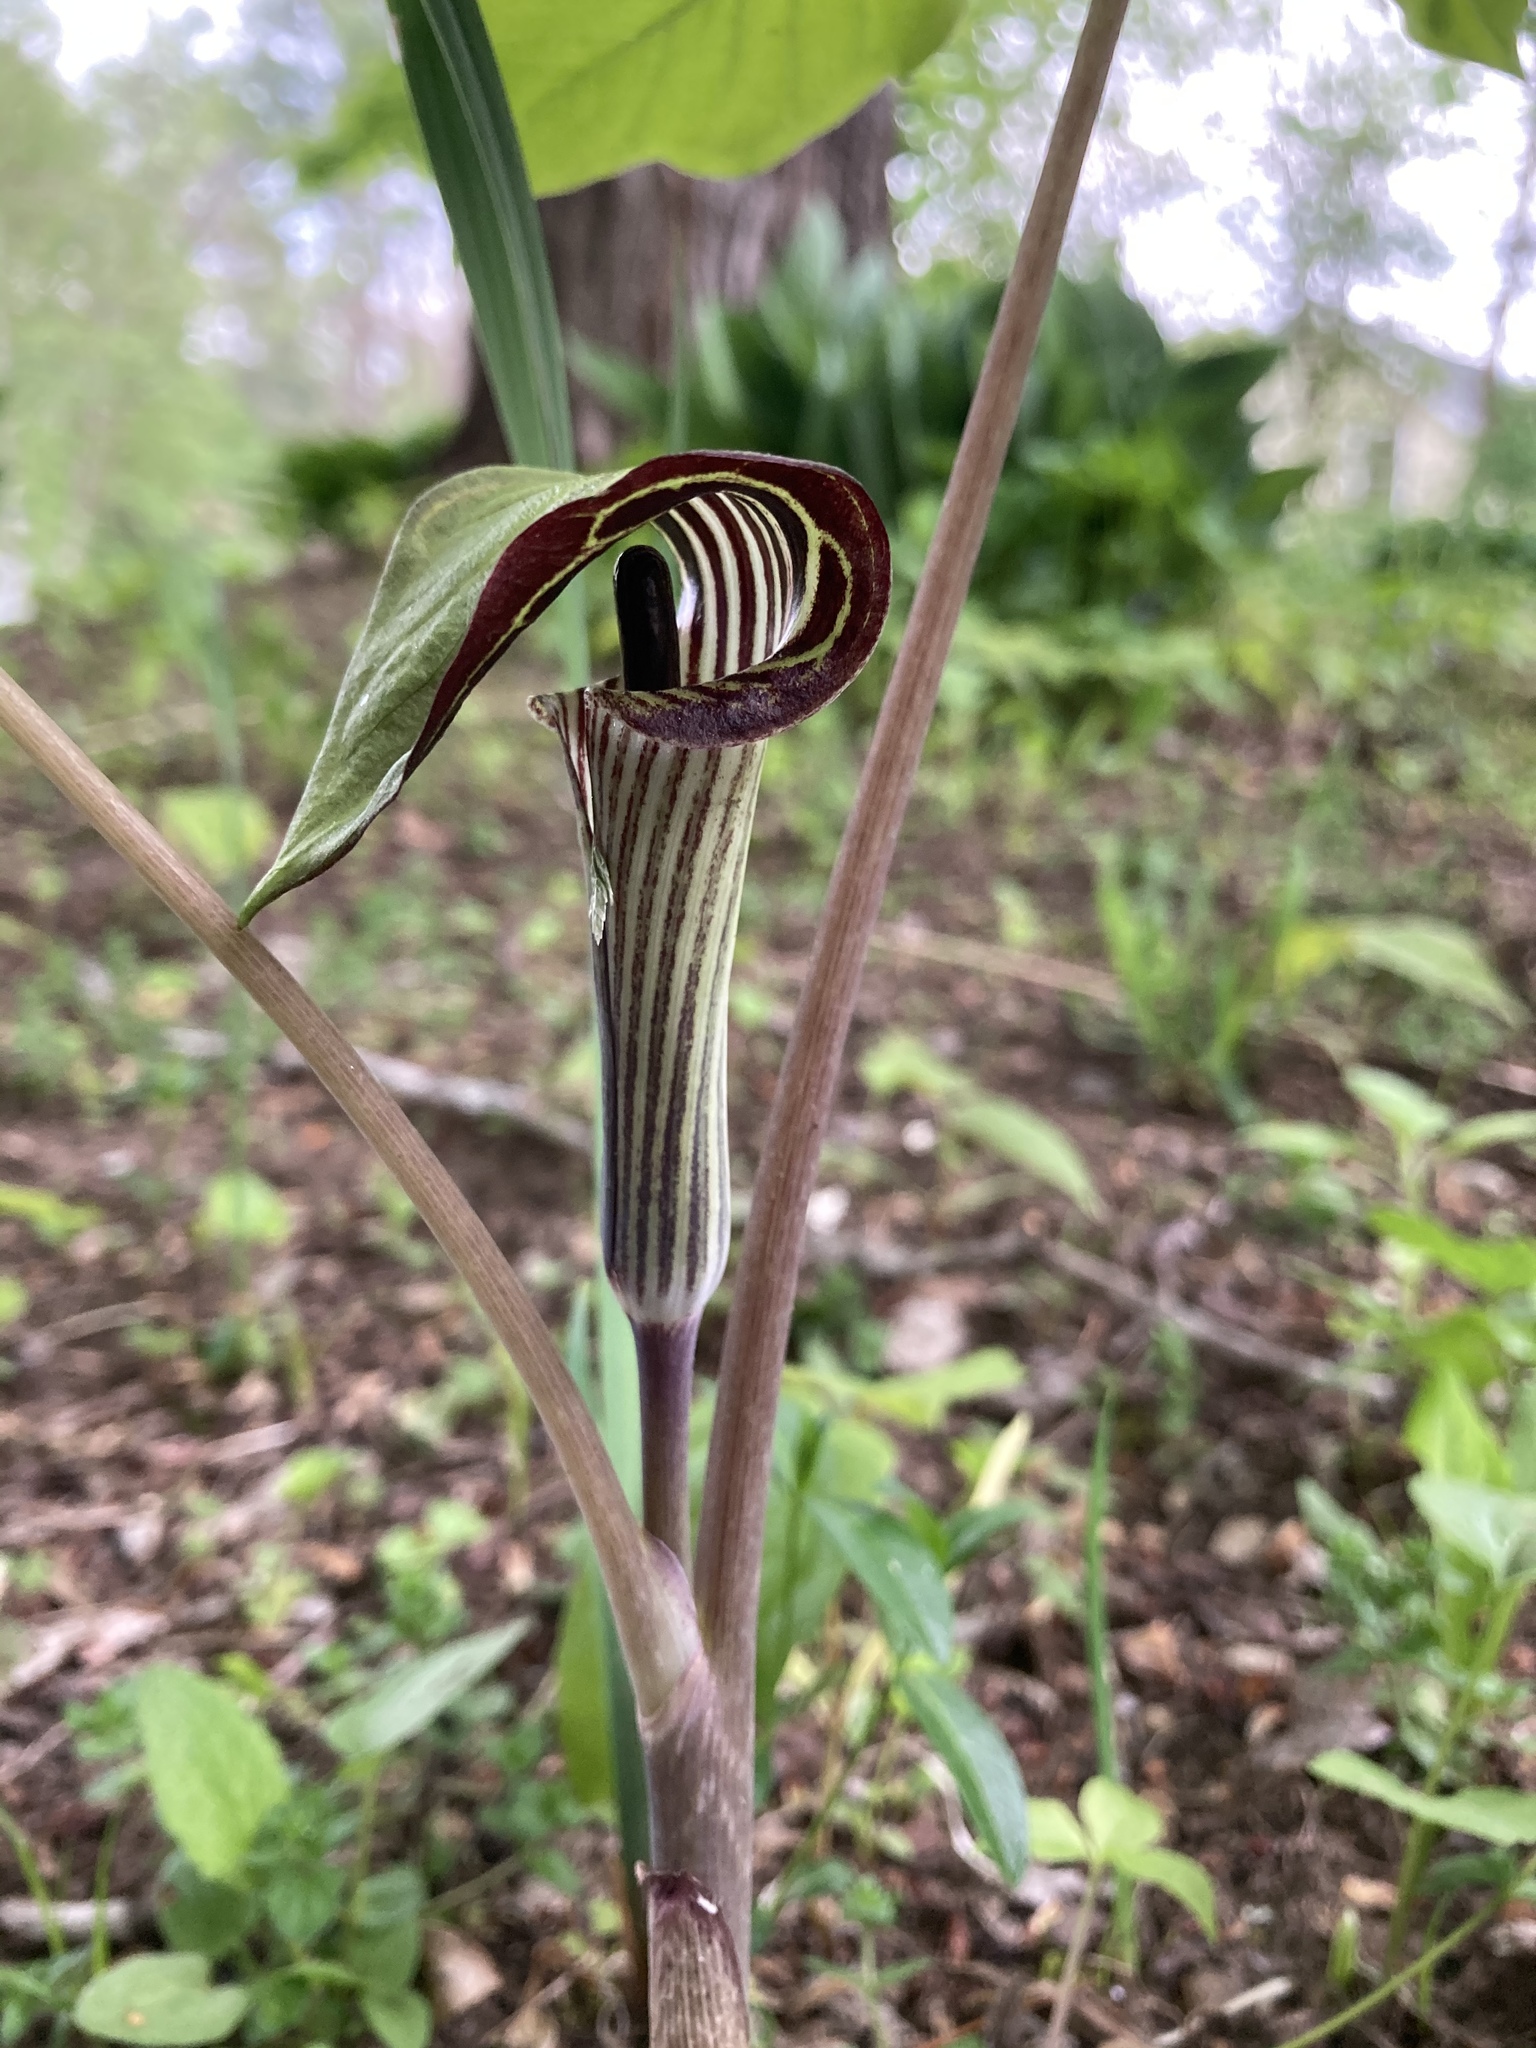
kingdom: Plantae
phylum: Tracheophyta
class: Liliopsida
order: Alismatales
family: Araceae
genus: Arisaema
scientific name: Arisaema triphyllum
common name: Jack-in-the-pulpit
